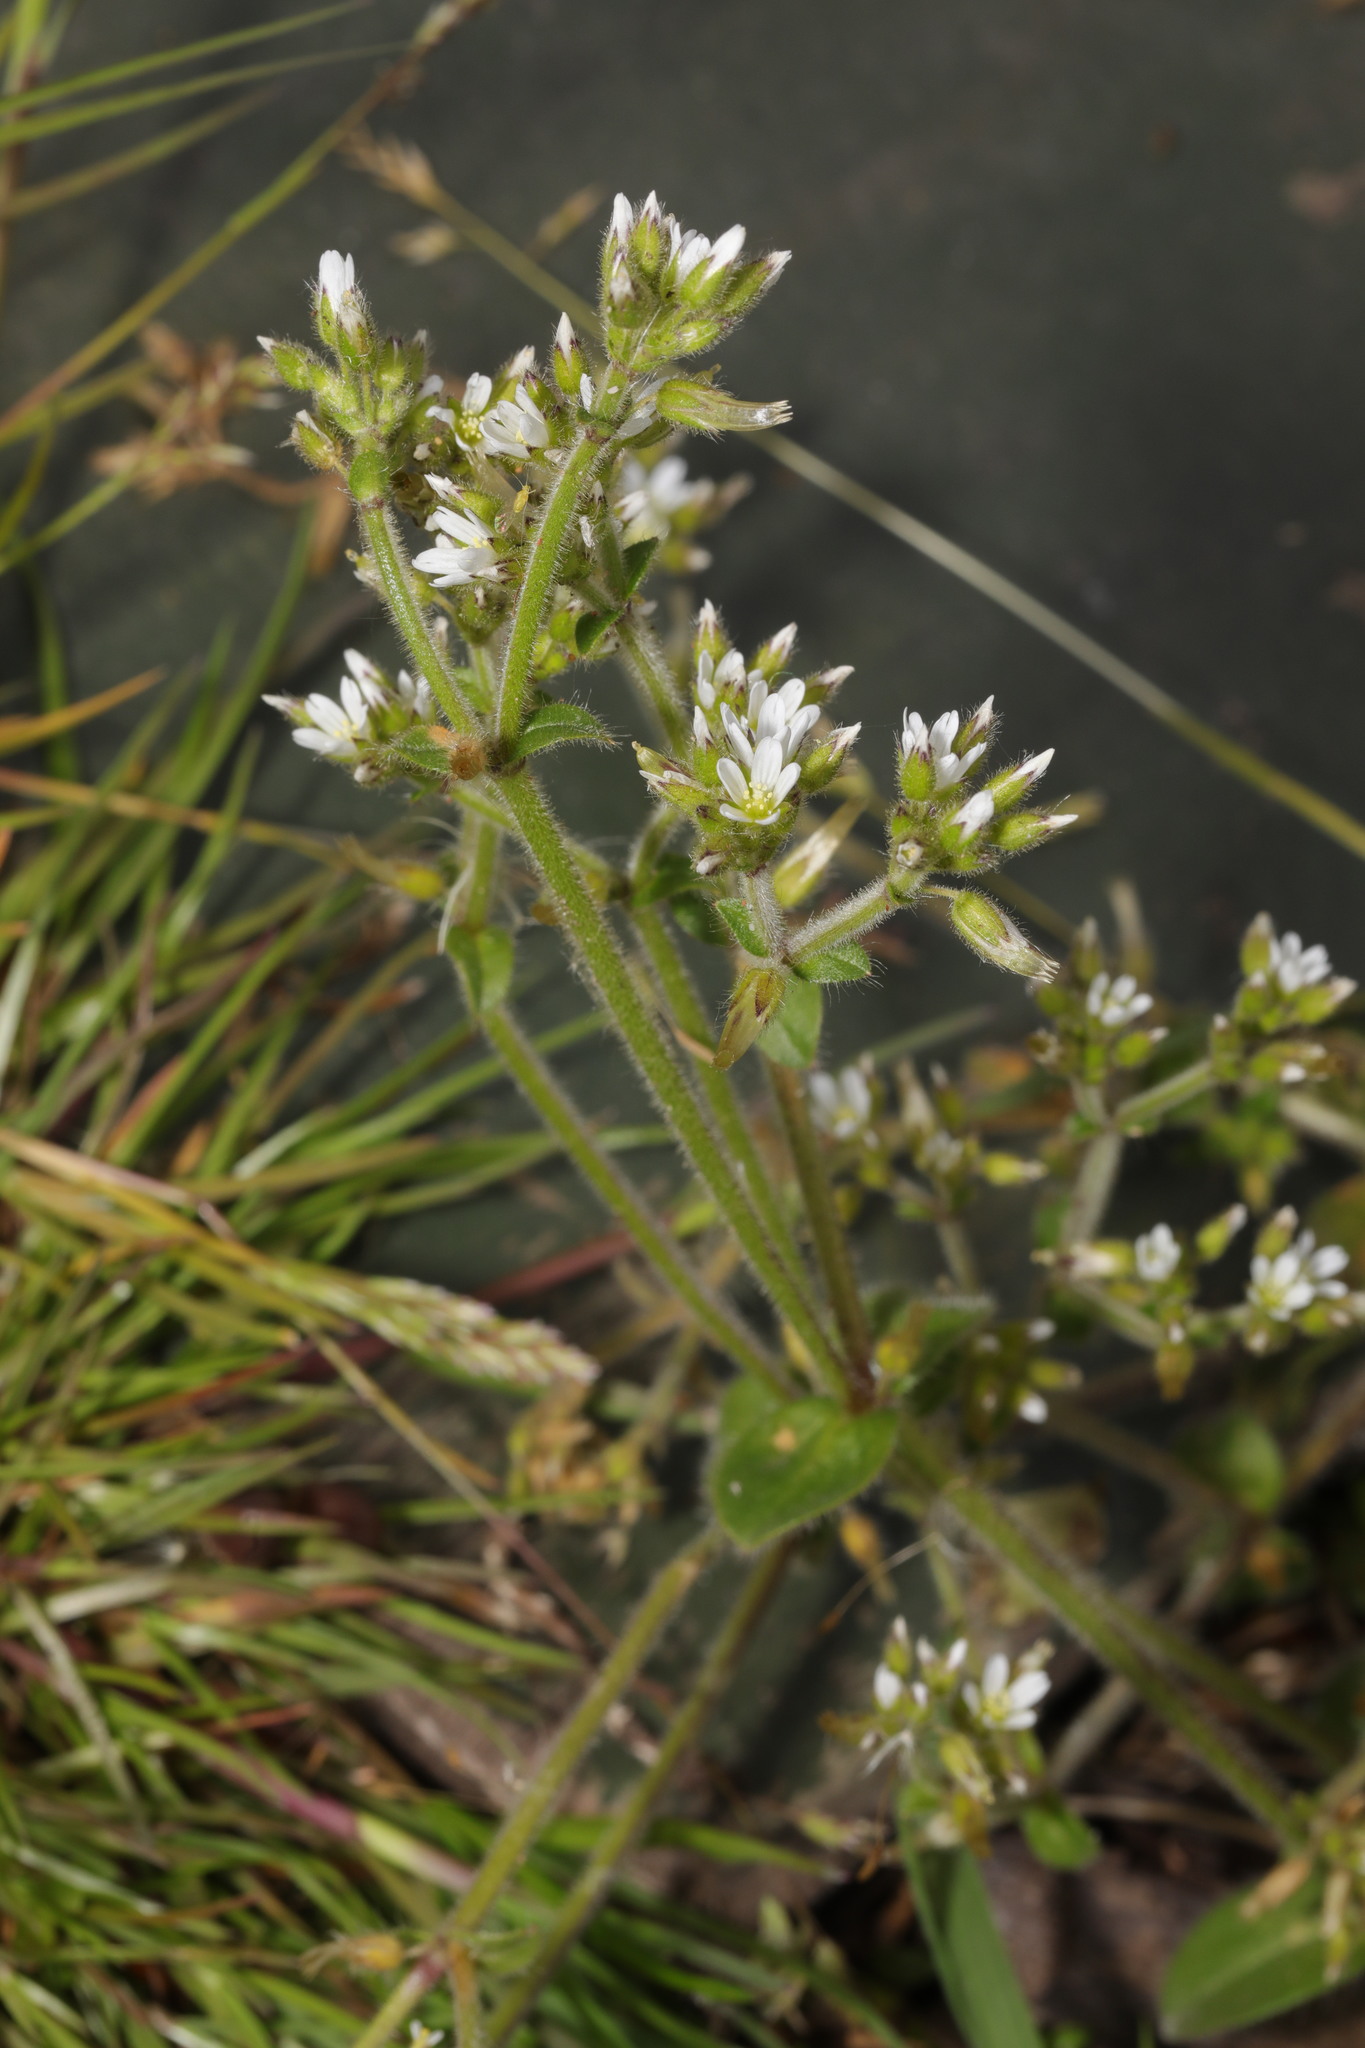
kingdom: Plantae
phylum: Tracheophyta
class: Magnoliopsida
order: Caryophyllales
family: Caryophyllaceae
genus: Cerastium
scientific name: Cerastium glomeratum
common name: Sticky chickweed
